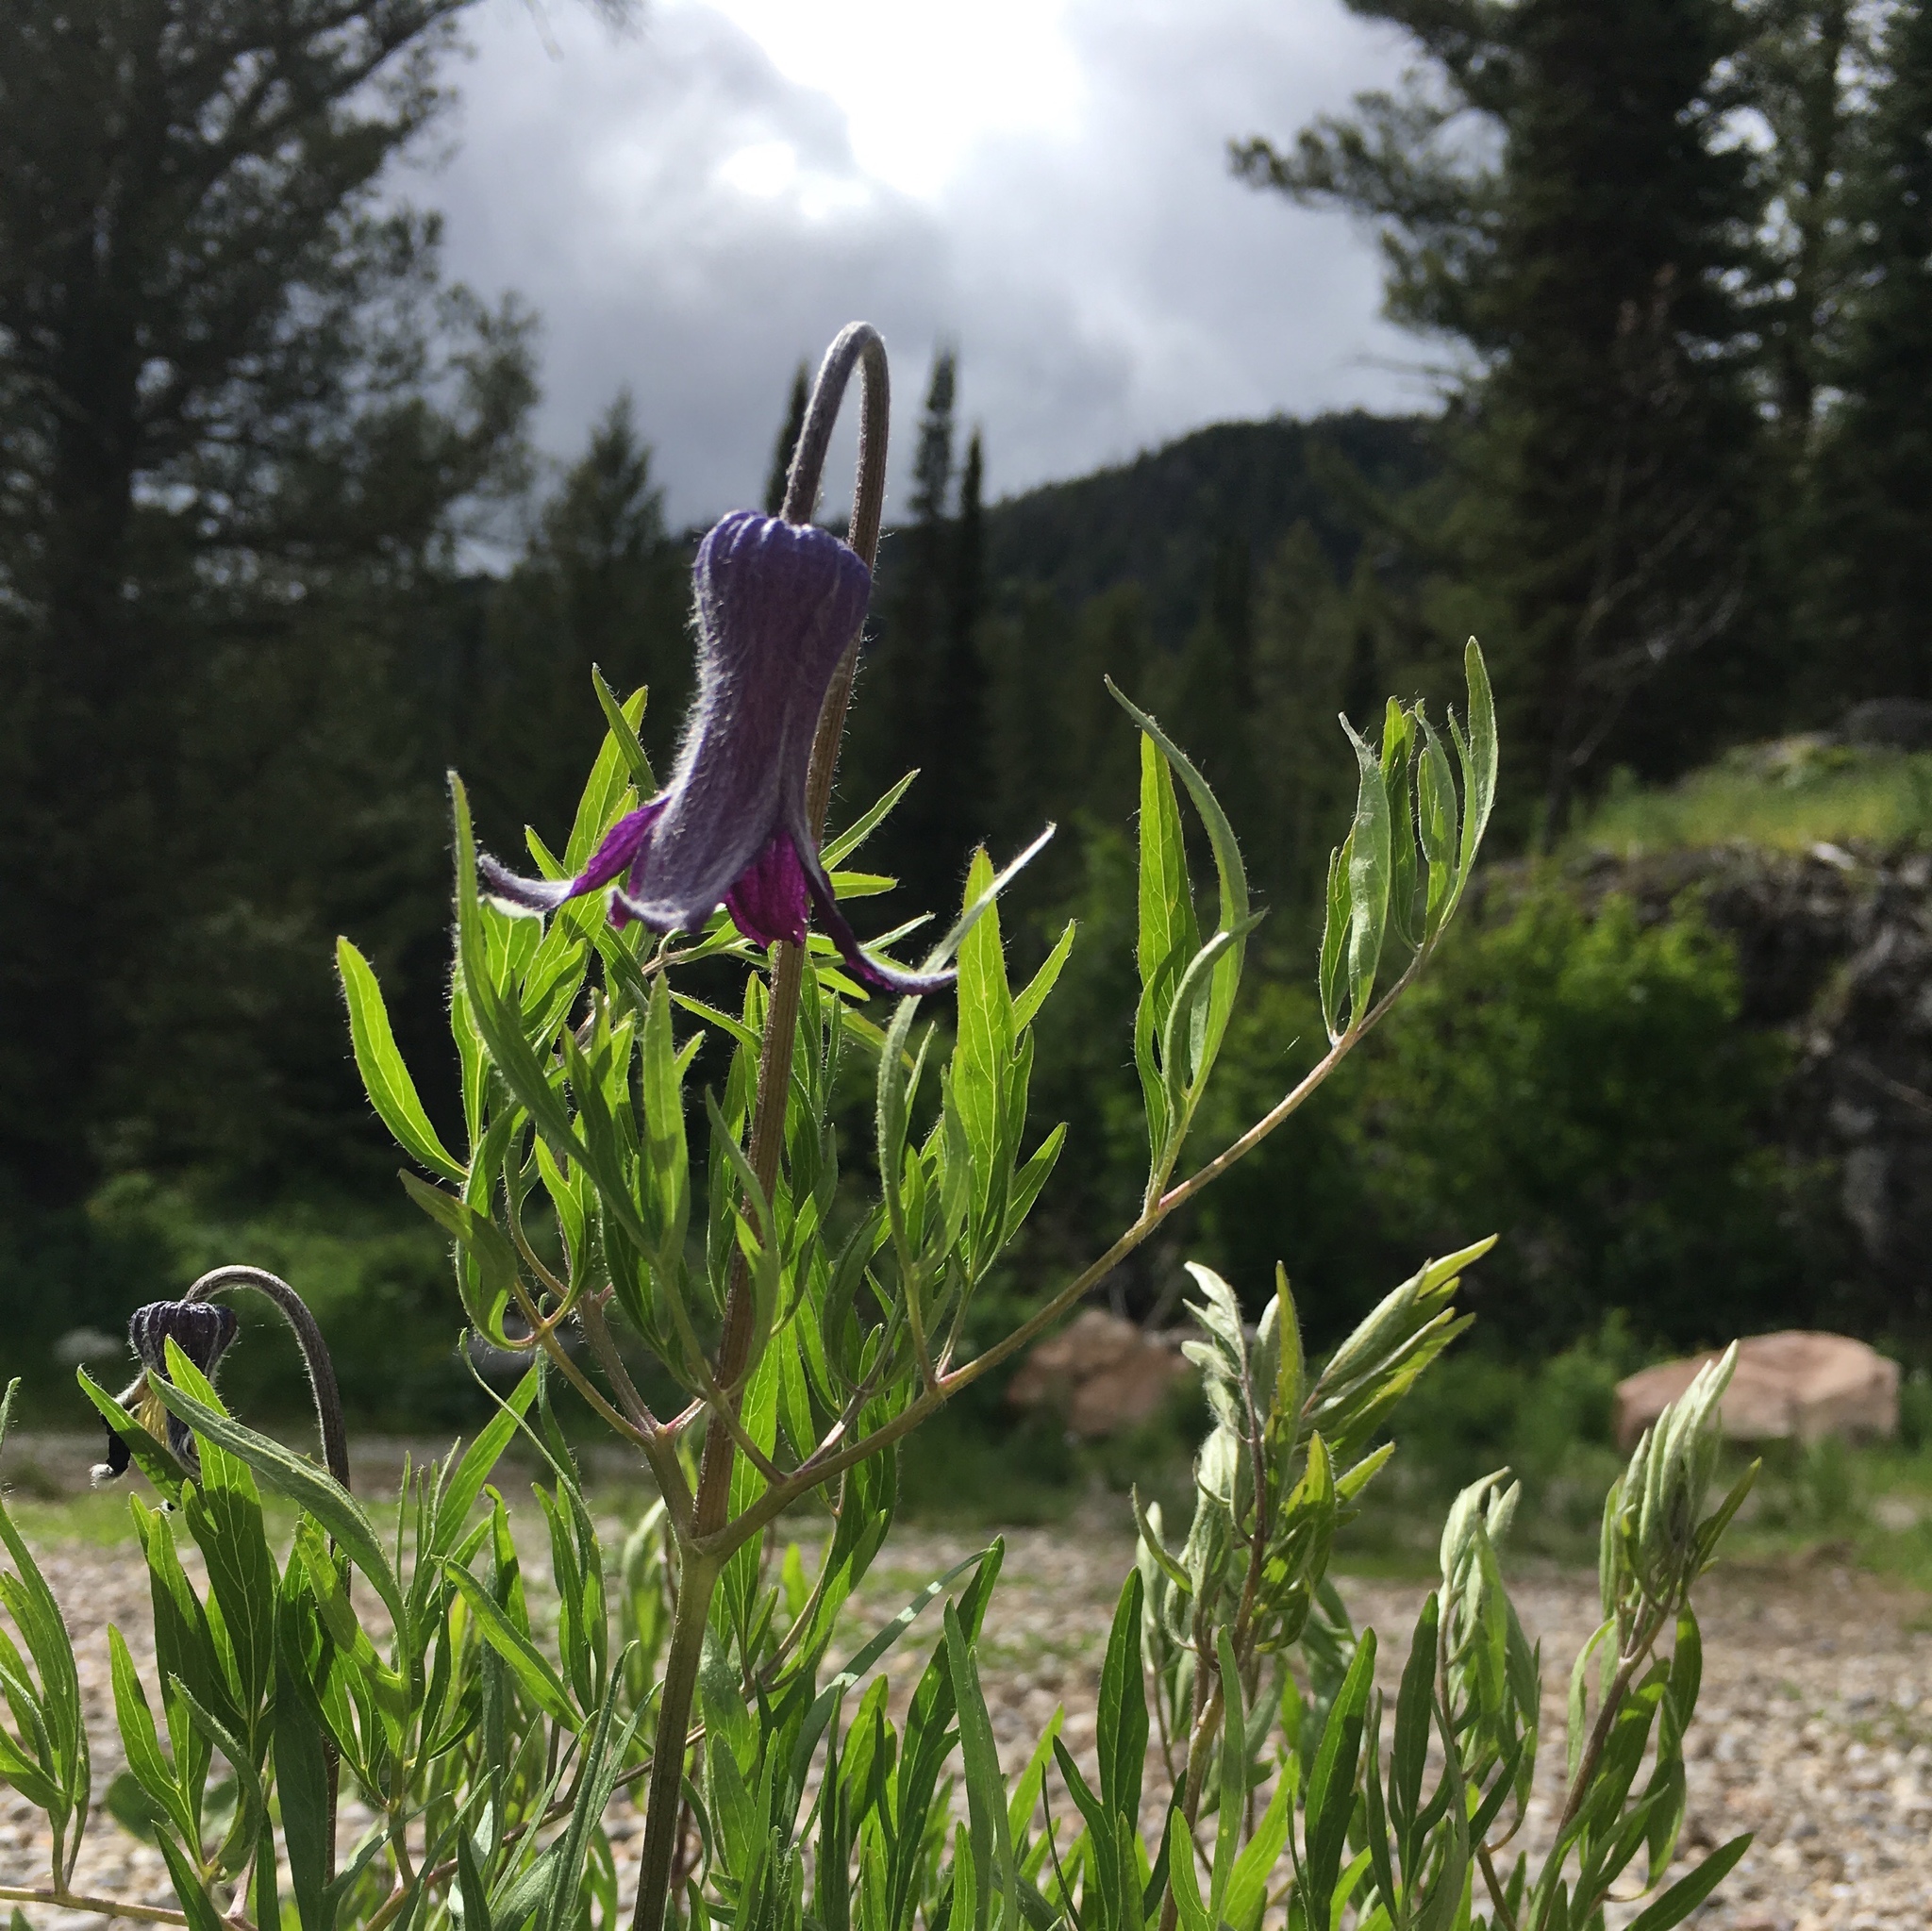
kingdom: Plantae
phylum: Tracheophyta
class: Magnoliopsida
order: Ranunculales
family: Ranunculaceae
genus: Clematis
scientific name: Clematis hirsutissima
